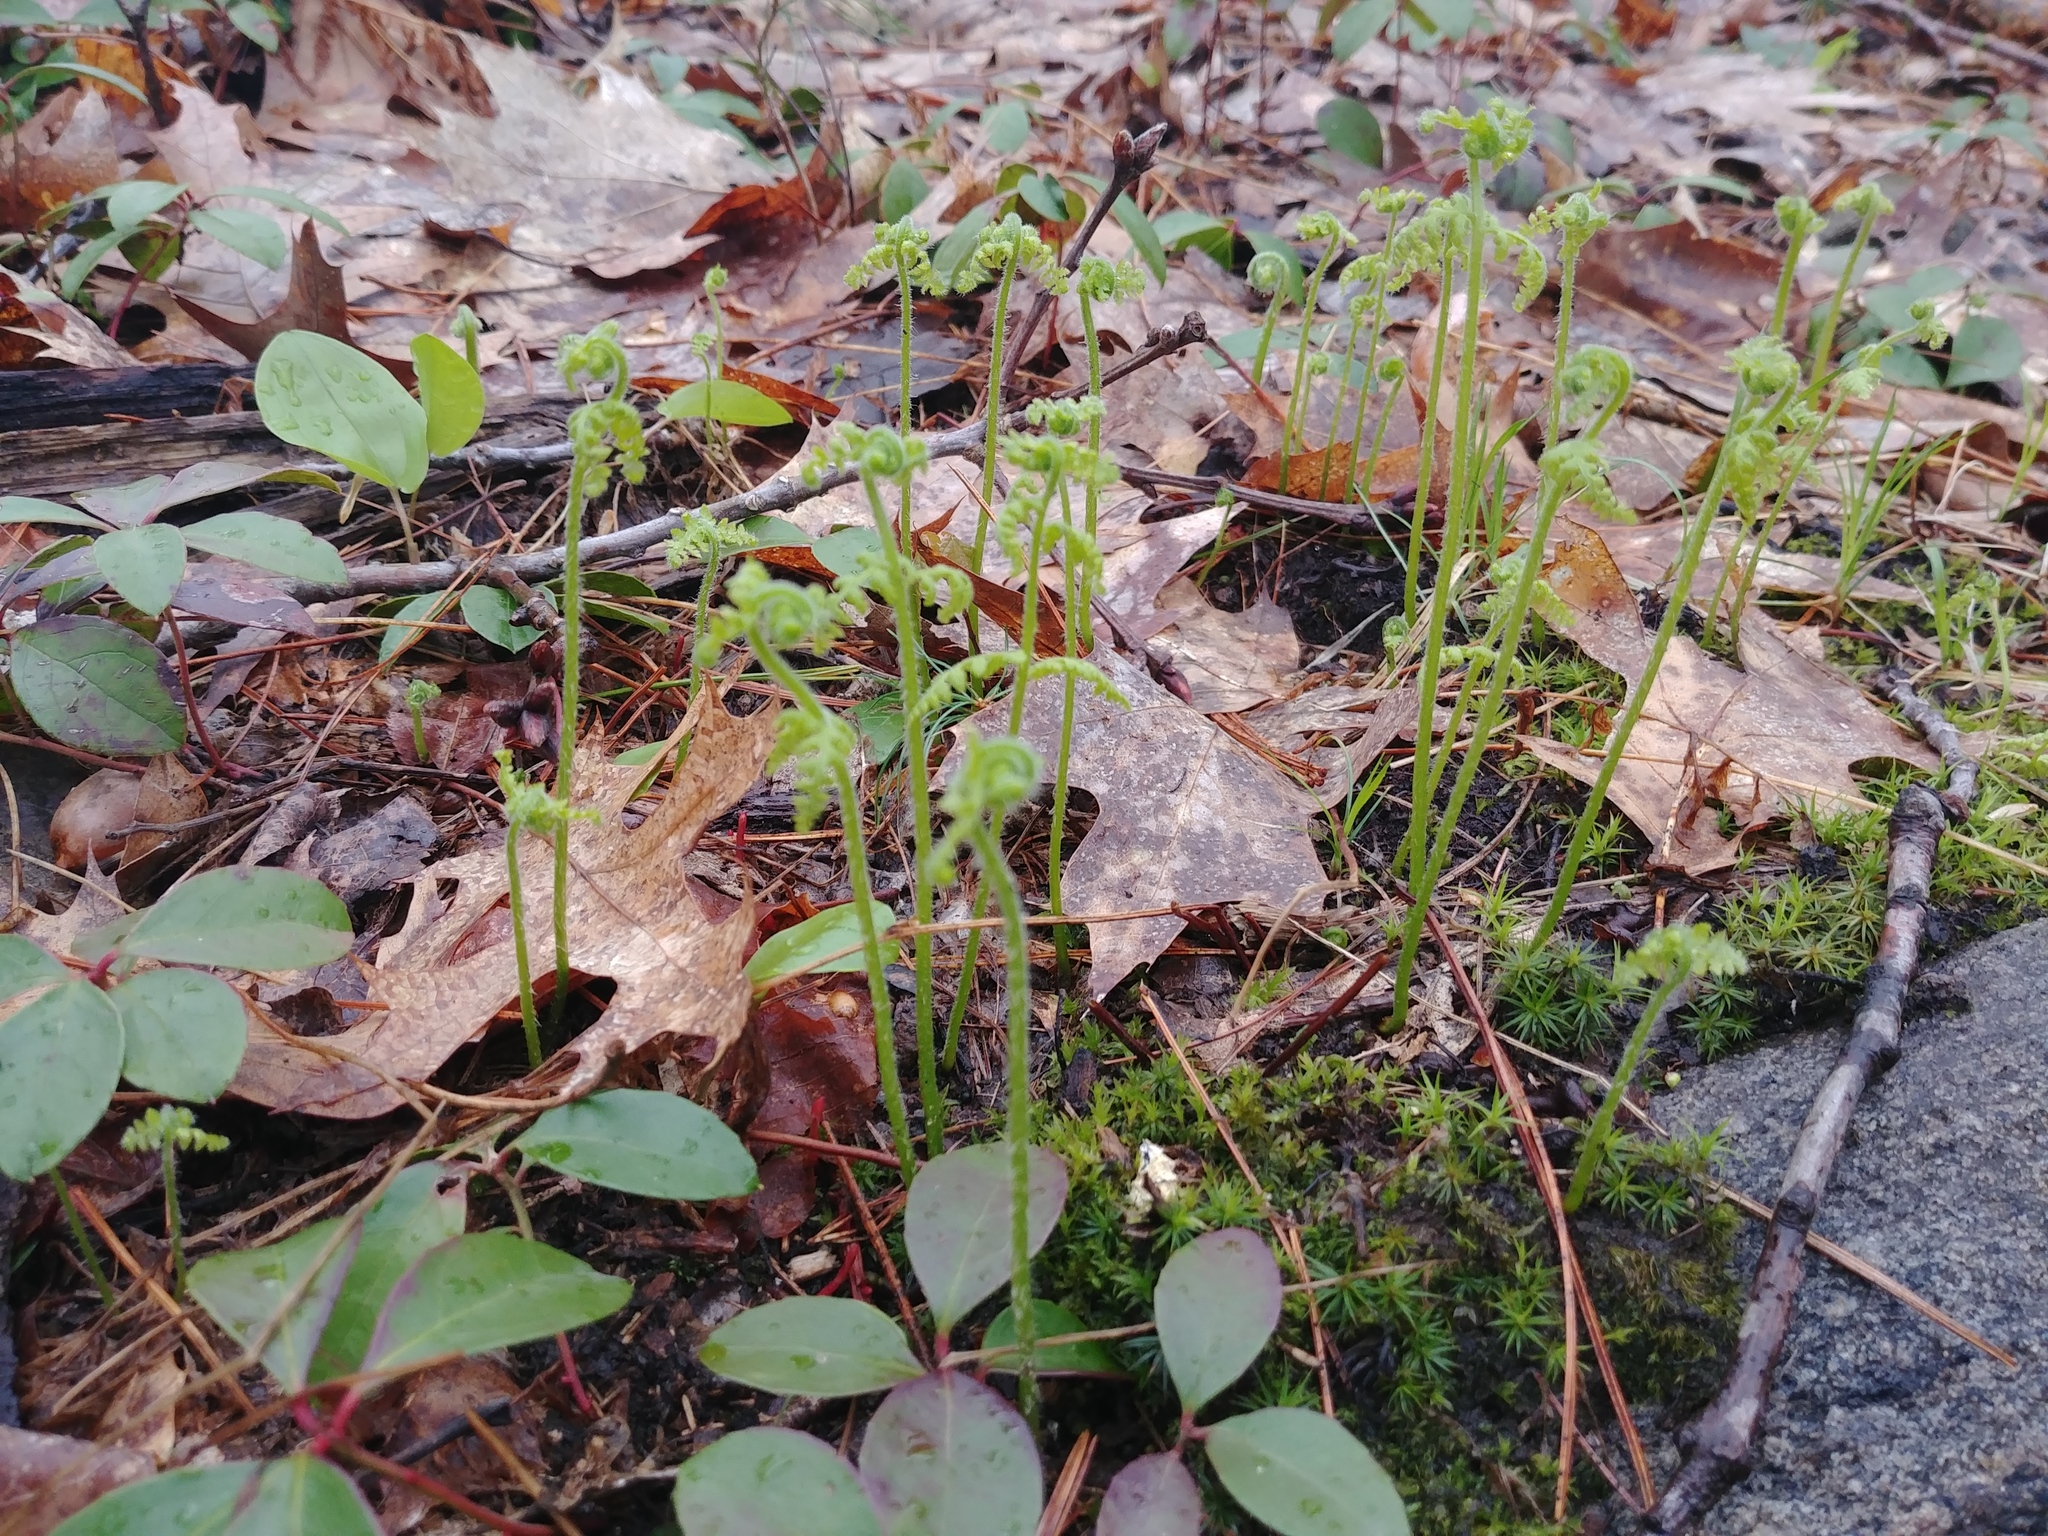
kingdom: Plantae
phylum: Tracheophyta
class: Polypodiopsida
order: Polypodiales
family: Dennstaedtiaceae
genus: Sitobolium
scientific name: Sitobolium punctilobum
